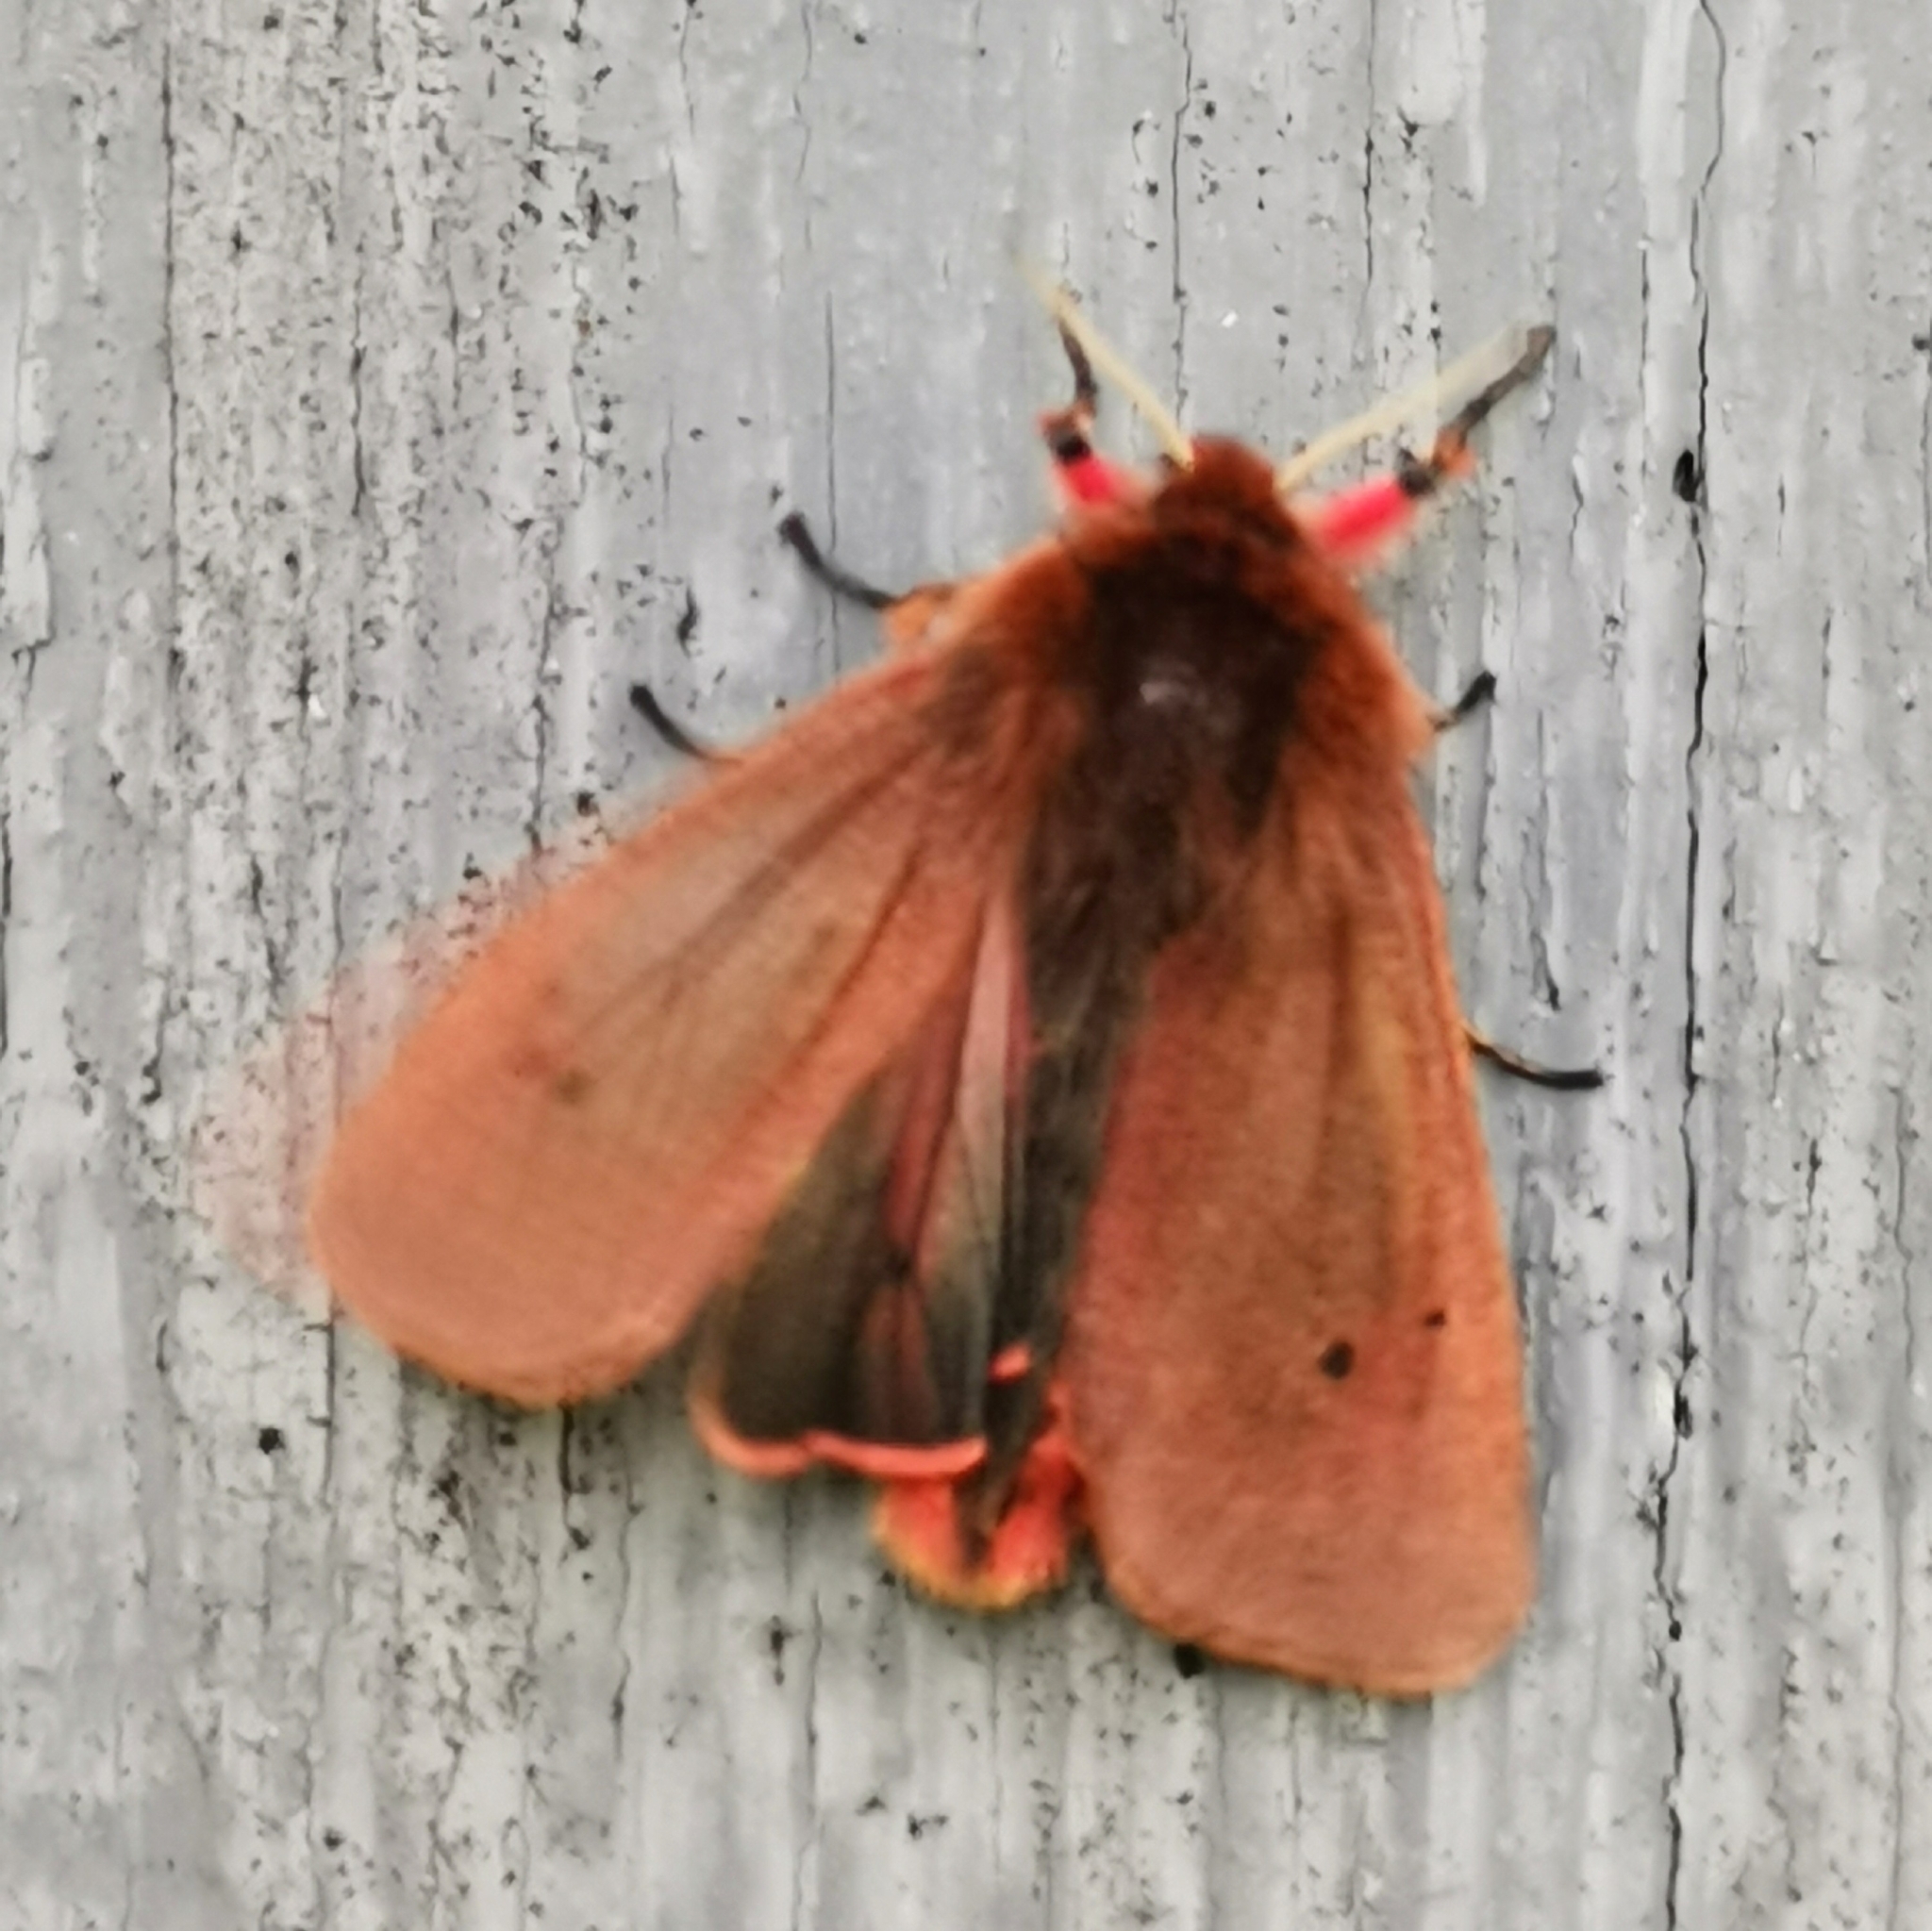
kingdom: Animalia
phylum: Arthropoda
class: Insecta
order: Lepidoptera
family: Erebidae
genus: Phragmatobia
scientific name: Phragmatobia fuliginosa
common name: Ruby tiger
